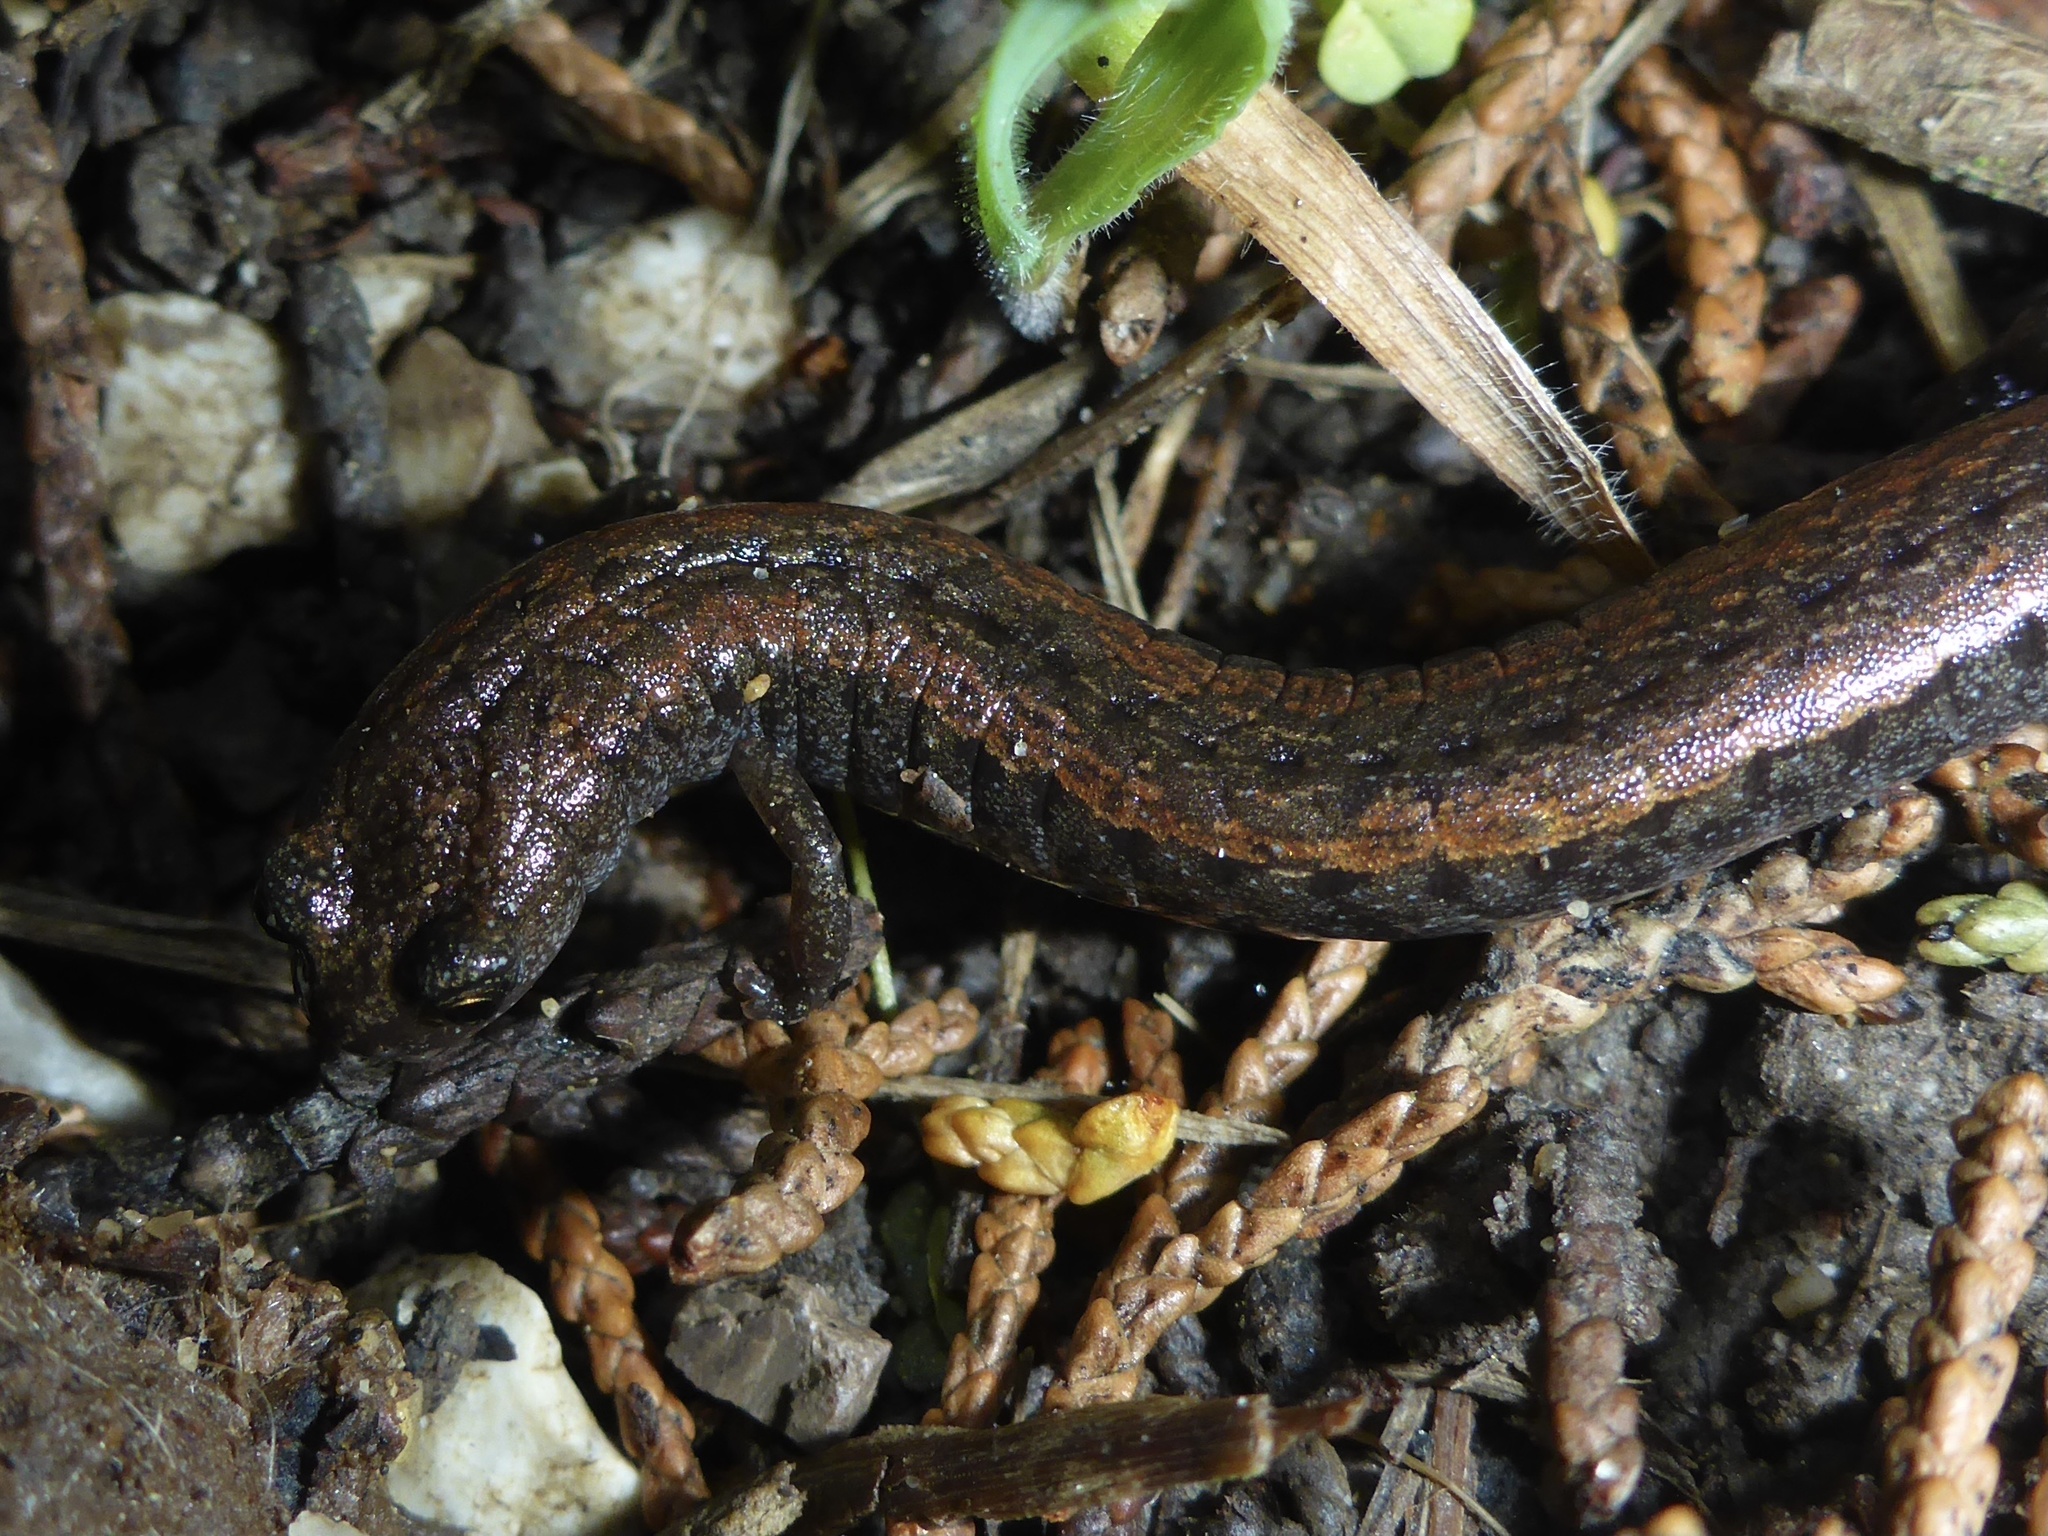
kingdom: Animalia
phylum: Chordata
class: Amphibia
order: Caudata
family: Plethodontidae
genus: Batrachoseps
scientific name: Batrachoseps attenuatus
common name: California slender salamander
